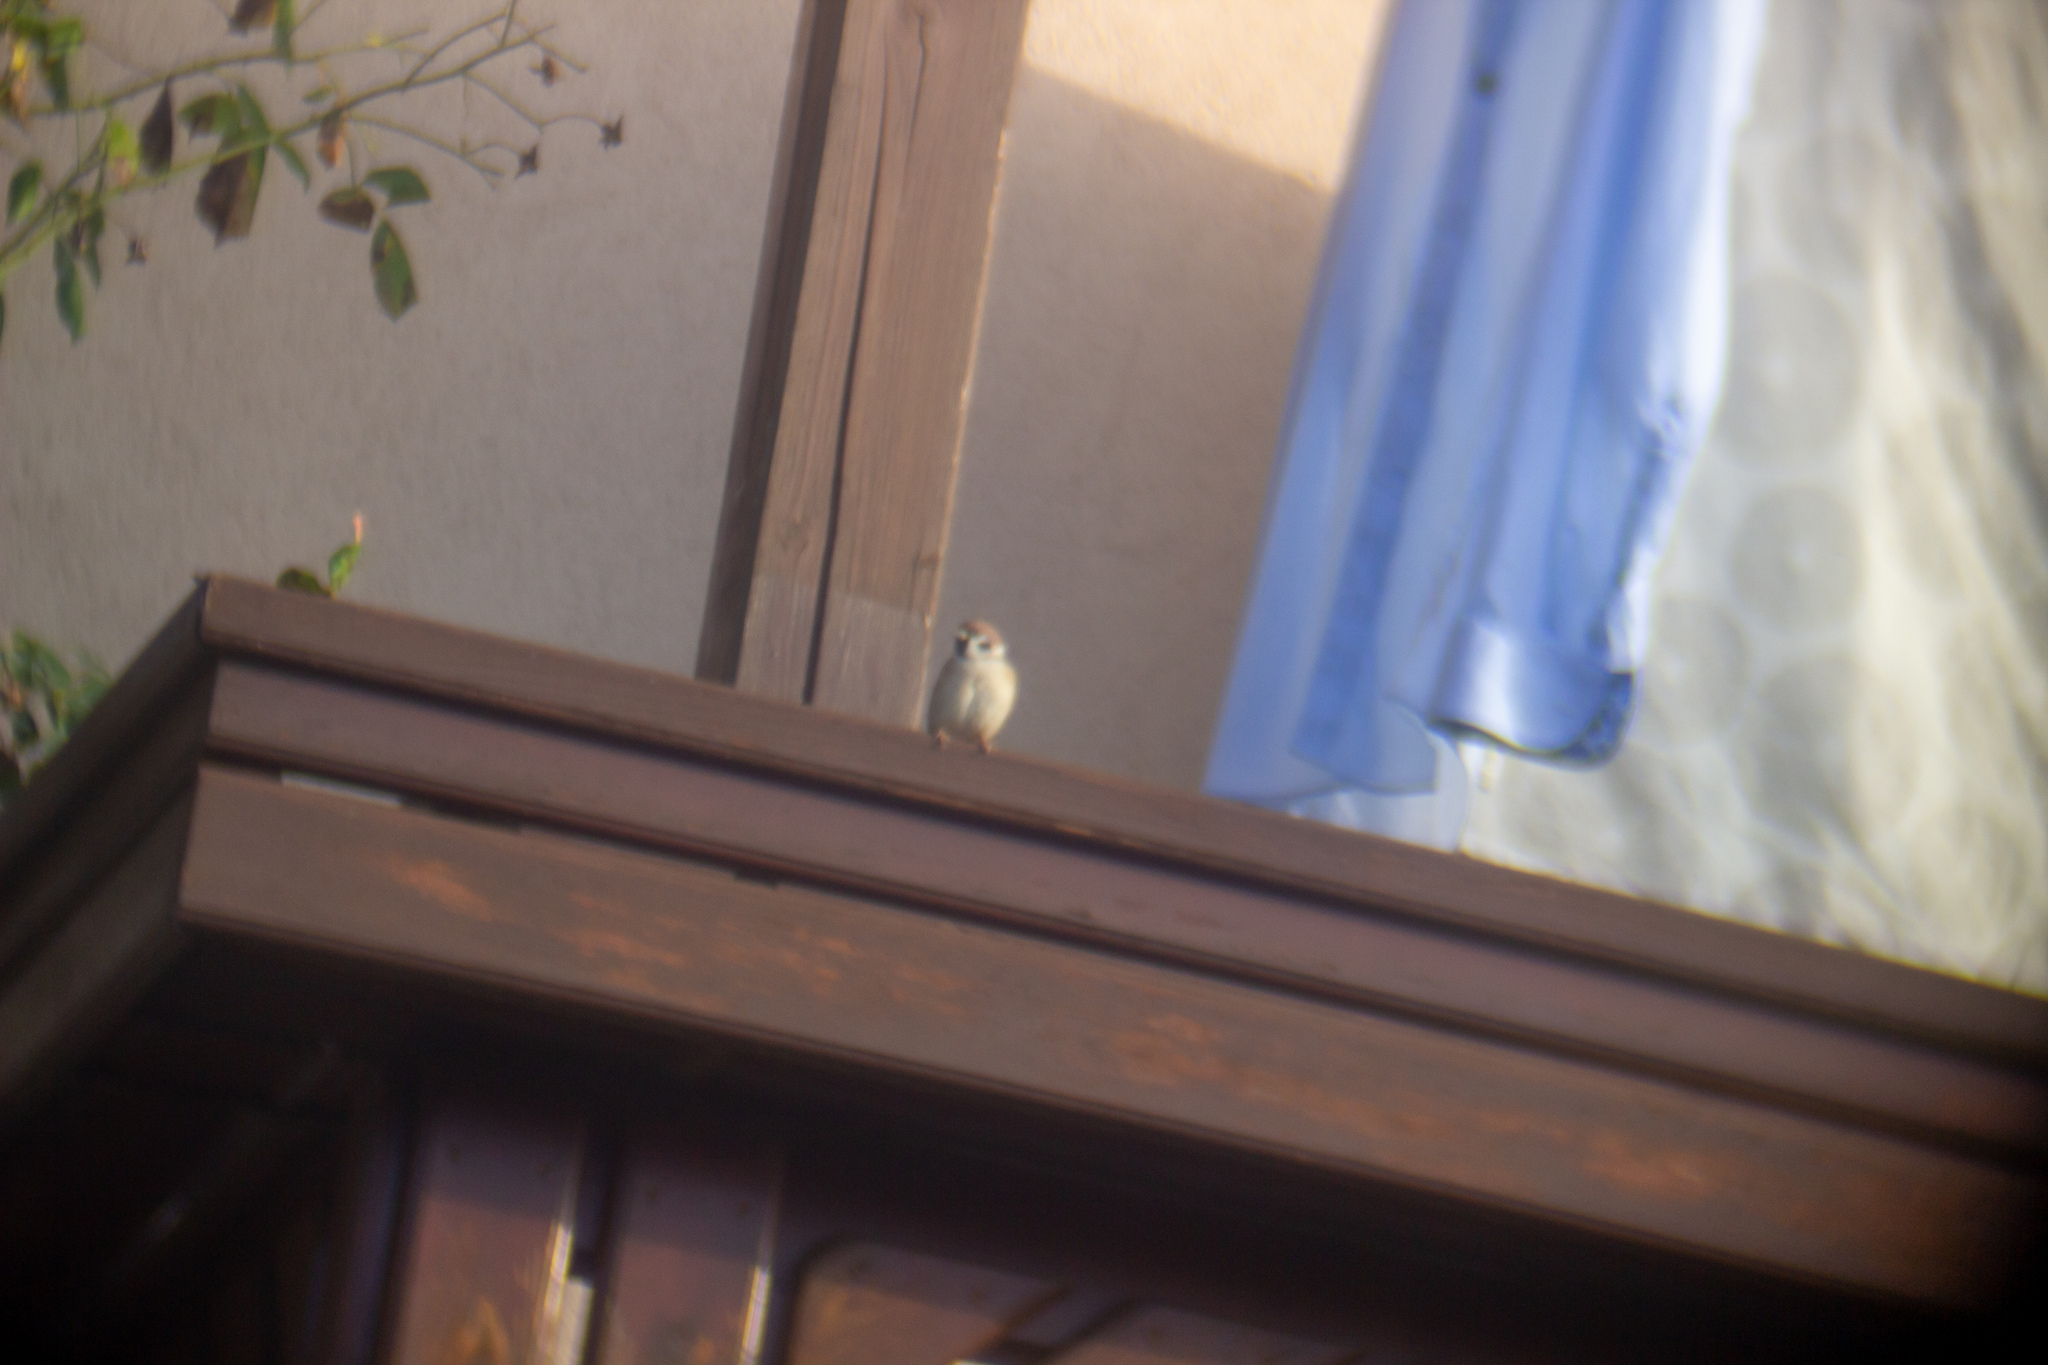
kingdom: Animalia
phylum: Chordata
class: Aves
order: Passeriformes
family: Passeridae
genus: Passer
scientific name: Passer montanus
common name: Eurasian tree sparrow
